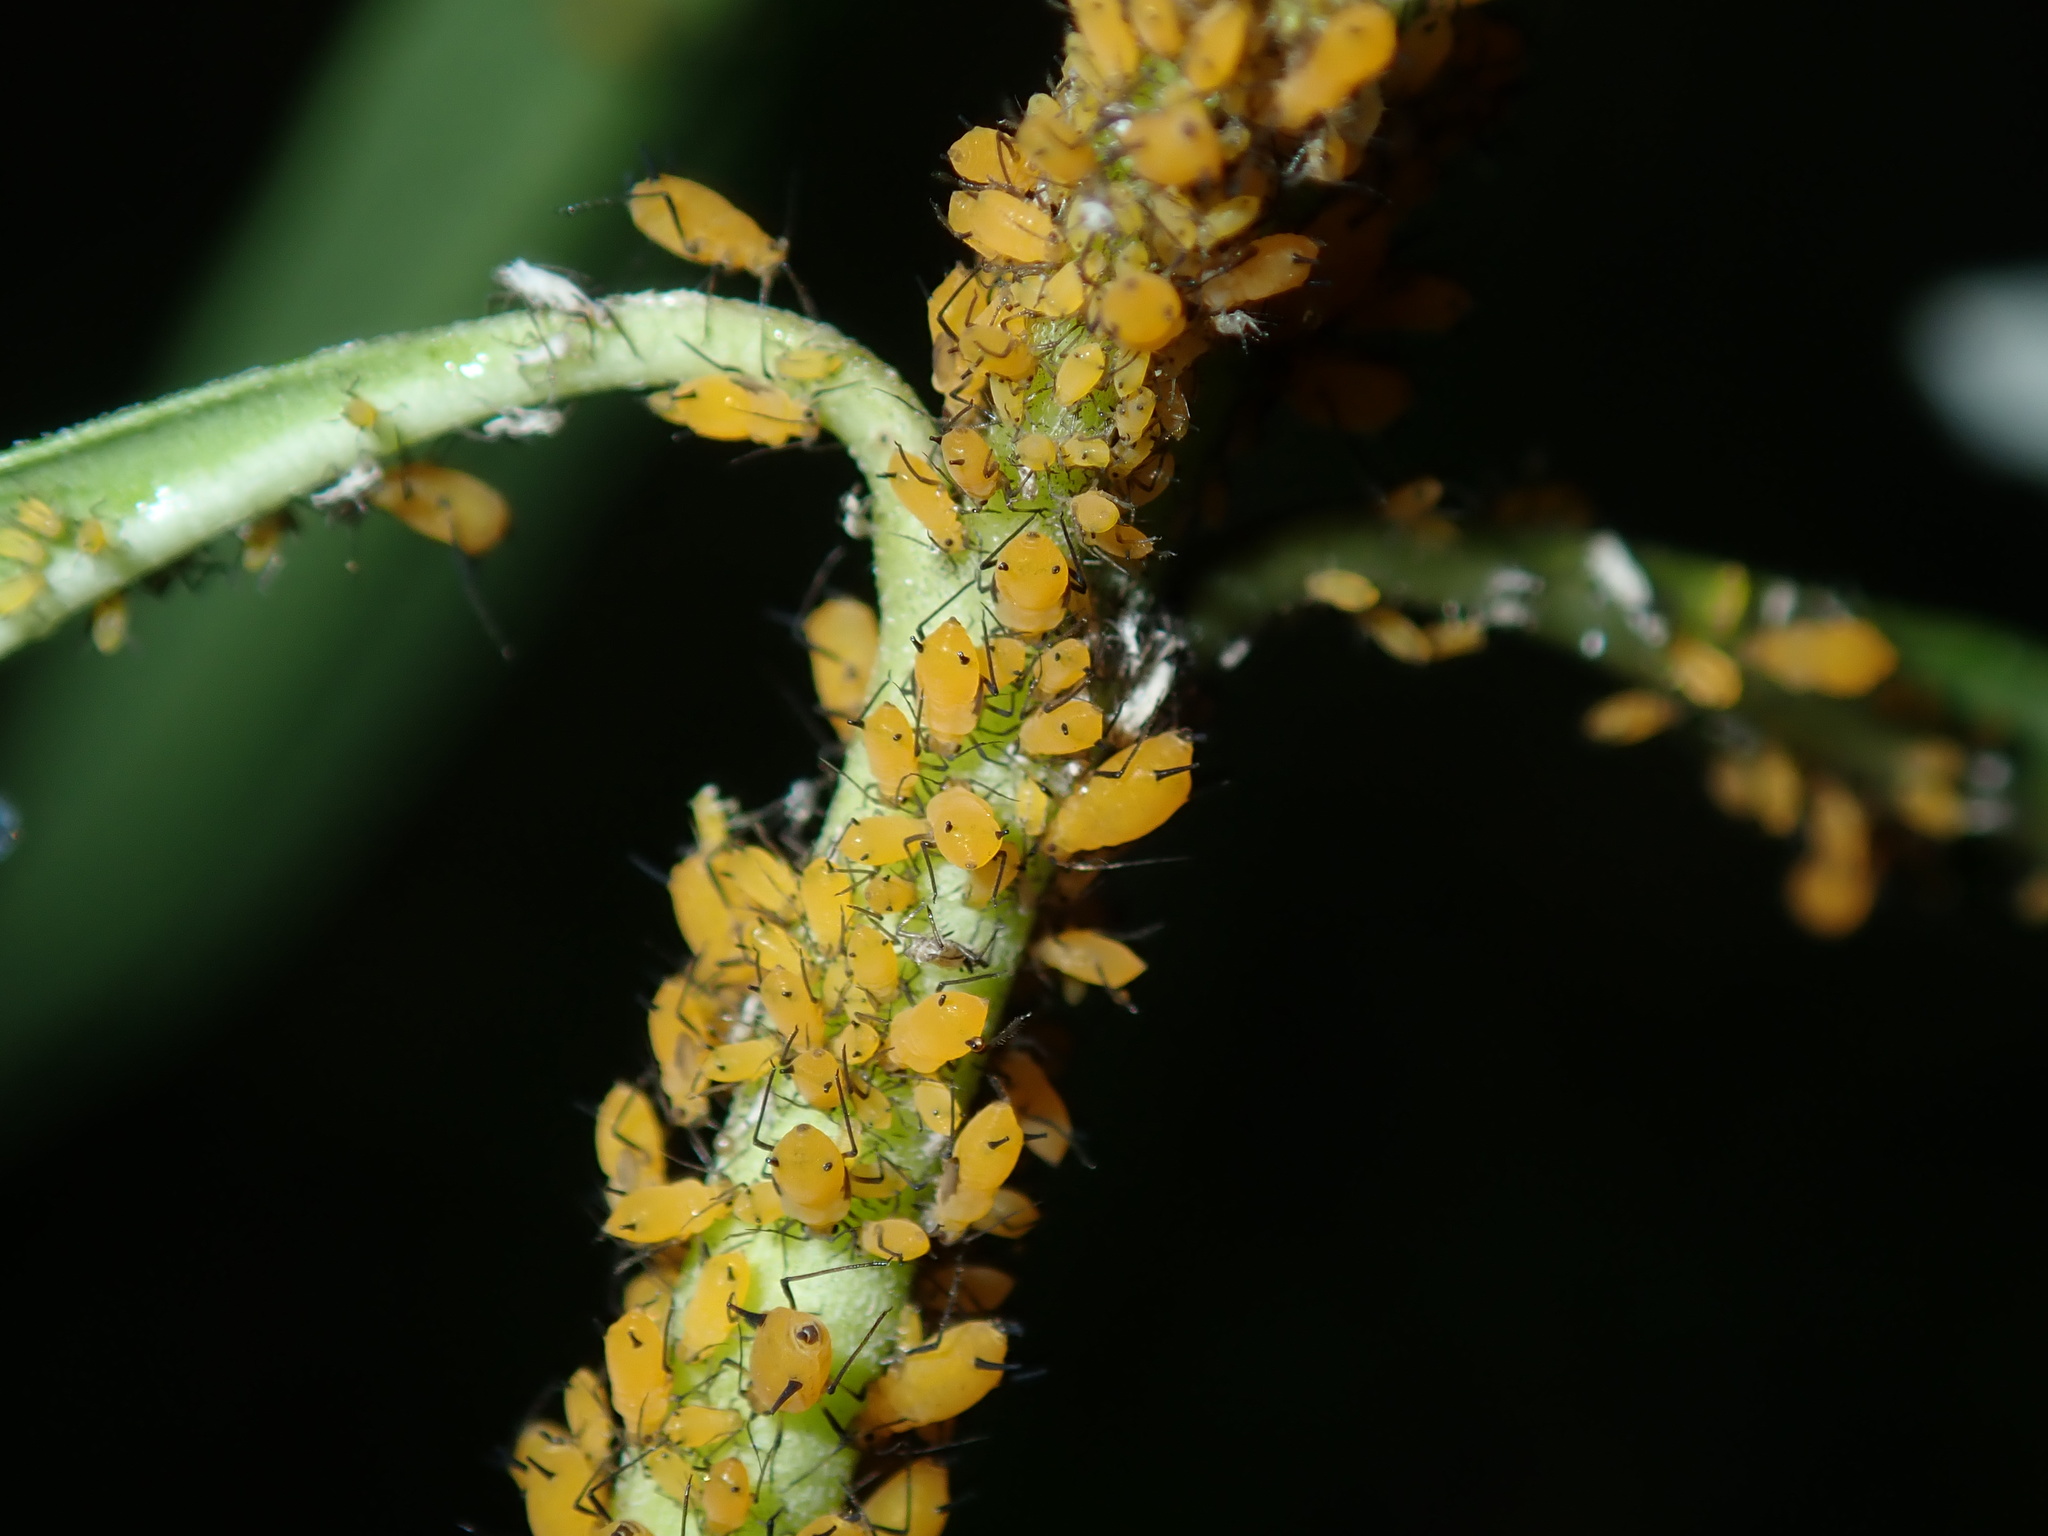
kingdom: Animalia
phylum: Arthropoda
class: Insecta
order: Hemiptera
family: Aphididae
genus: Aphis
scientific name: Aphis nerii
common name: Oleander aphid
